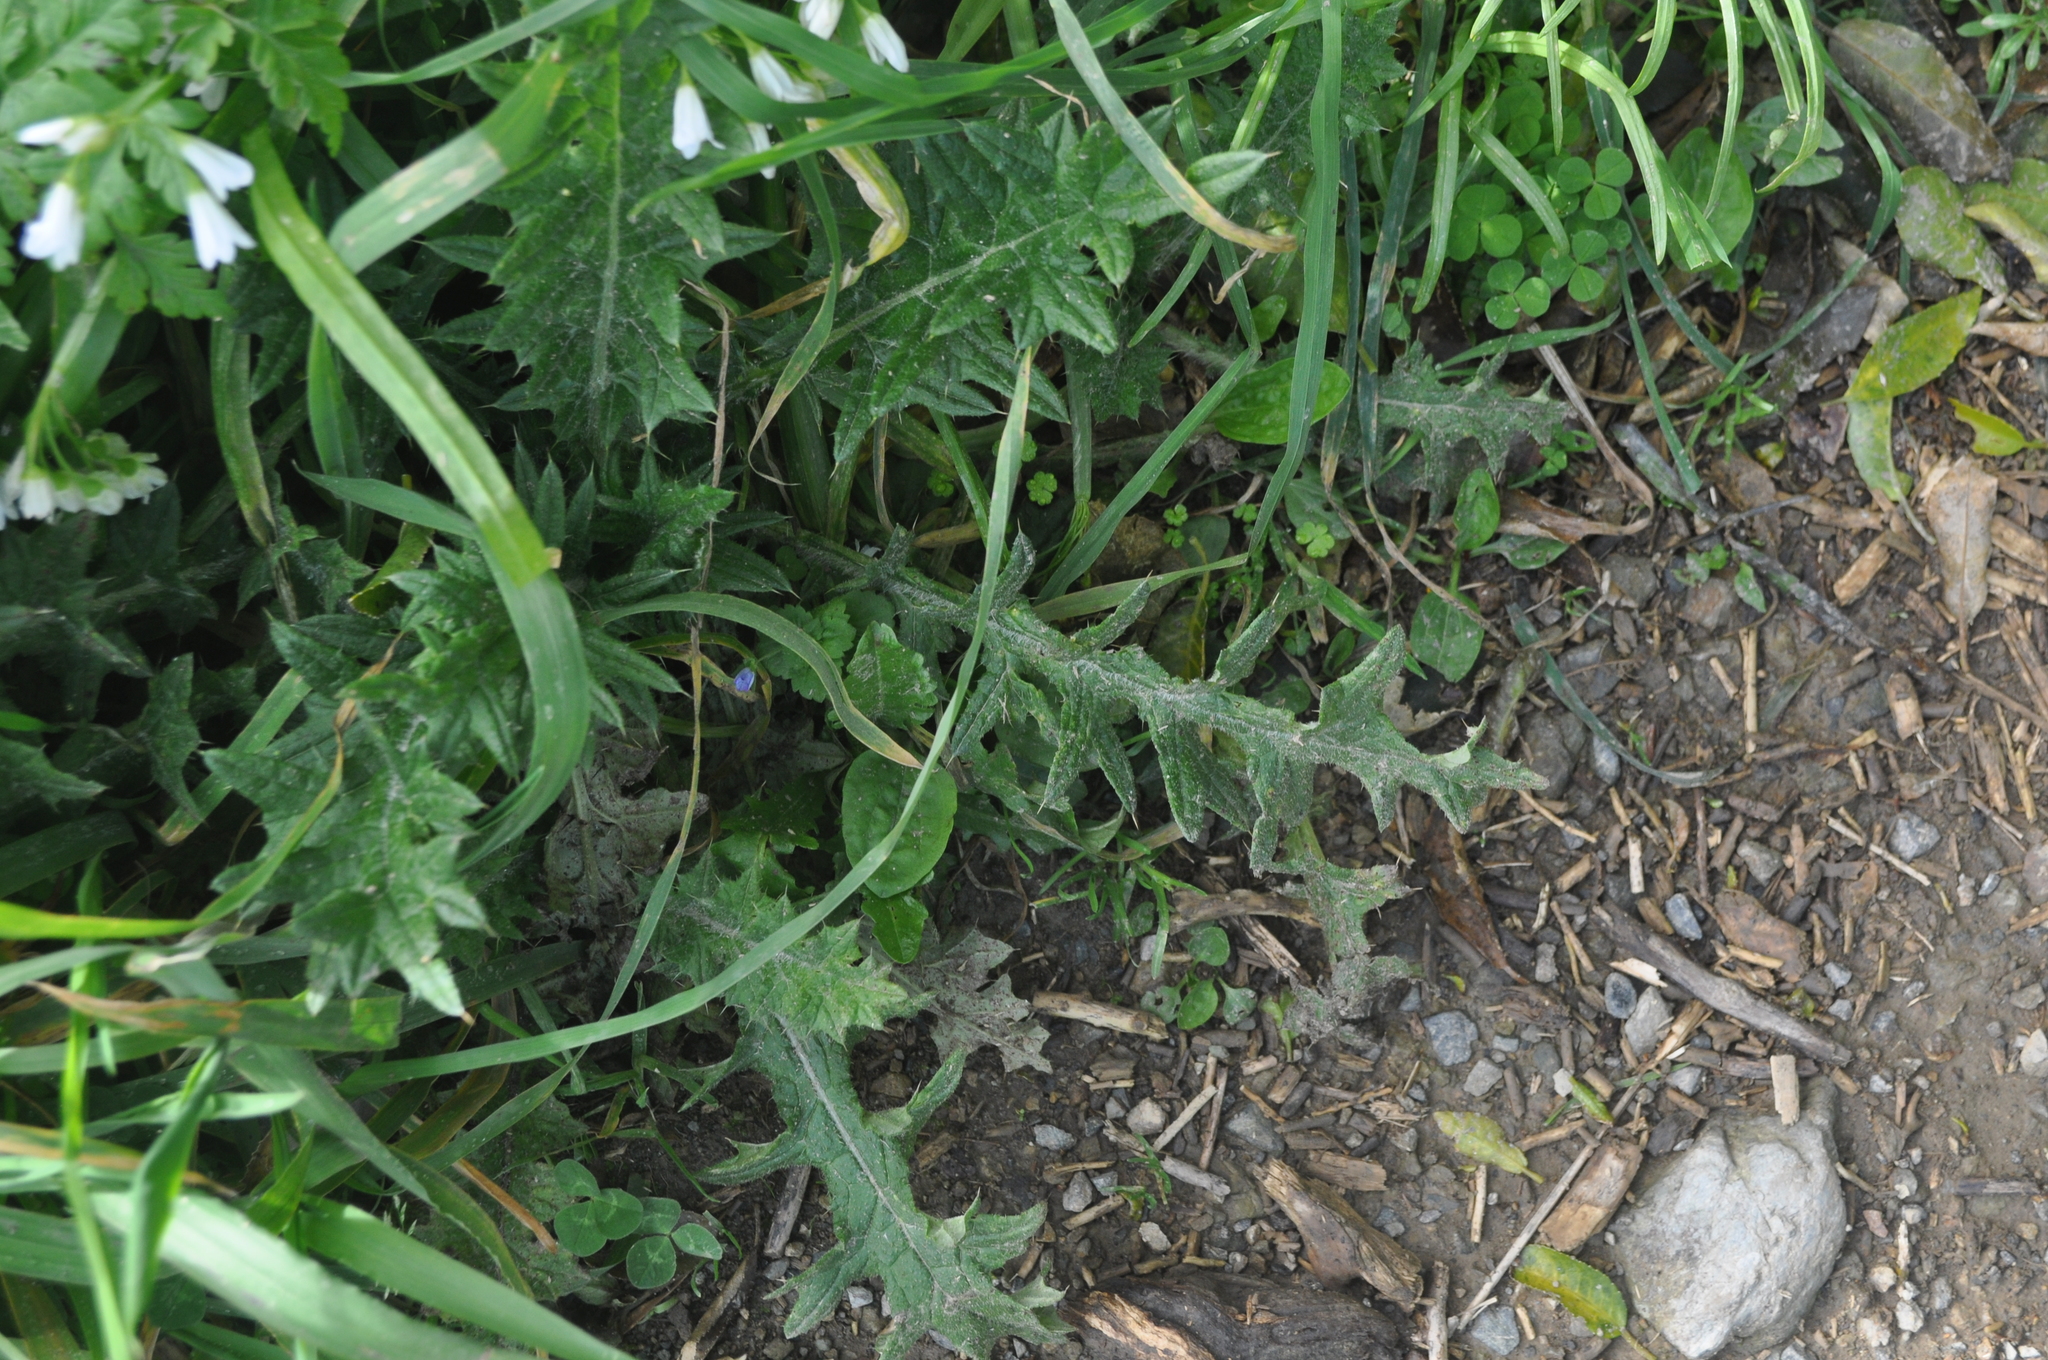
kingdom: Plantae
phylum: Tracheophyta
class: Magnoliopsida
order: Asterales
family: Asteraceae
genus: Cirsium
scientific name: Cirsium vulgare
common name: Bull thistle
